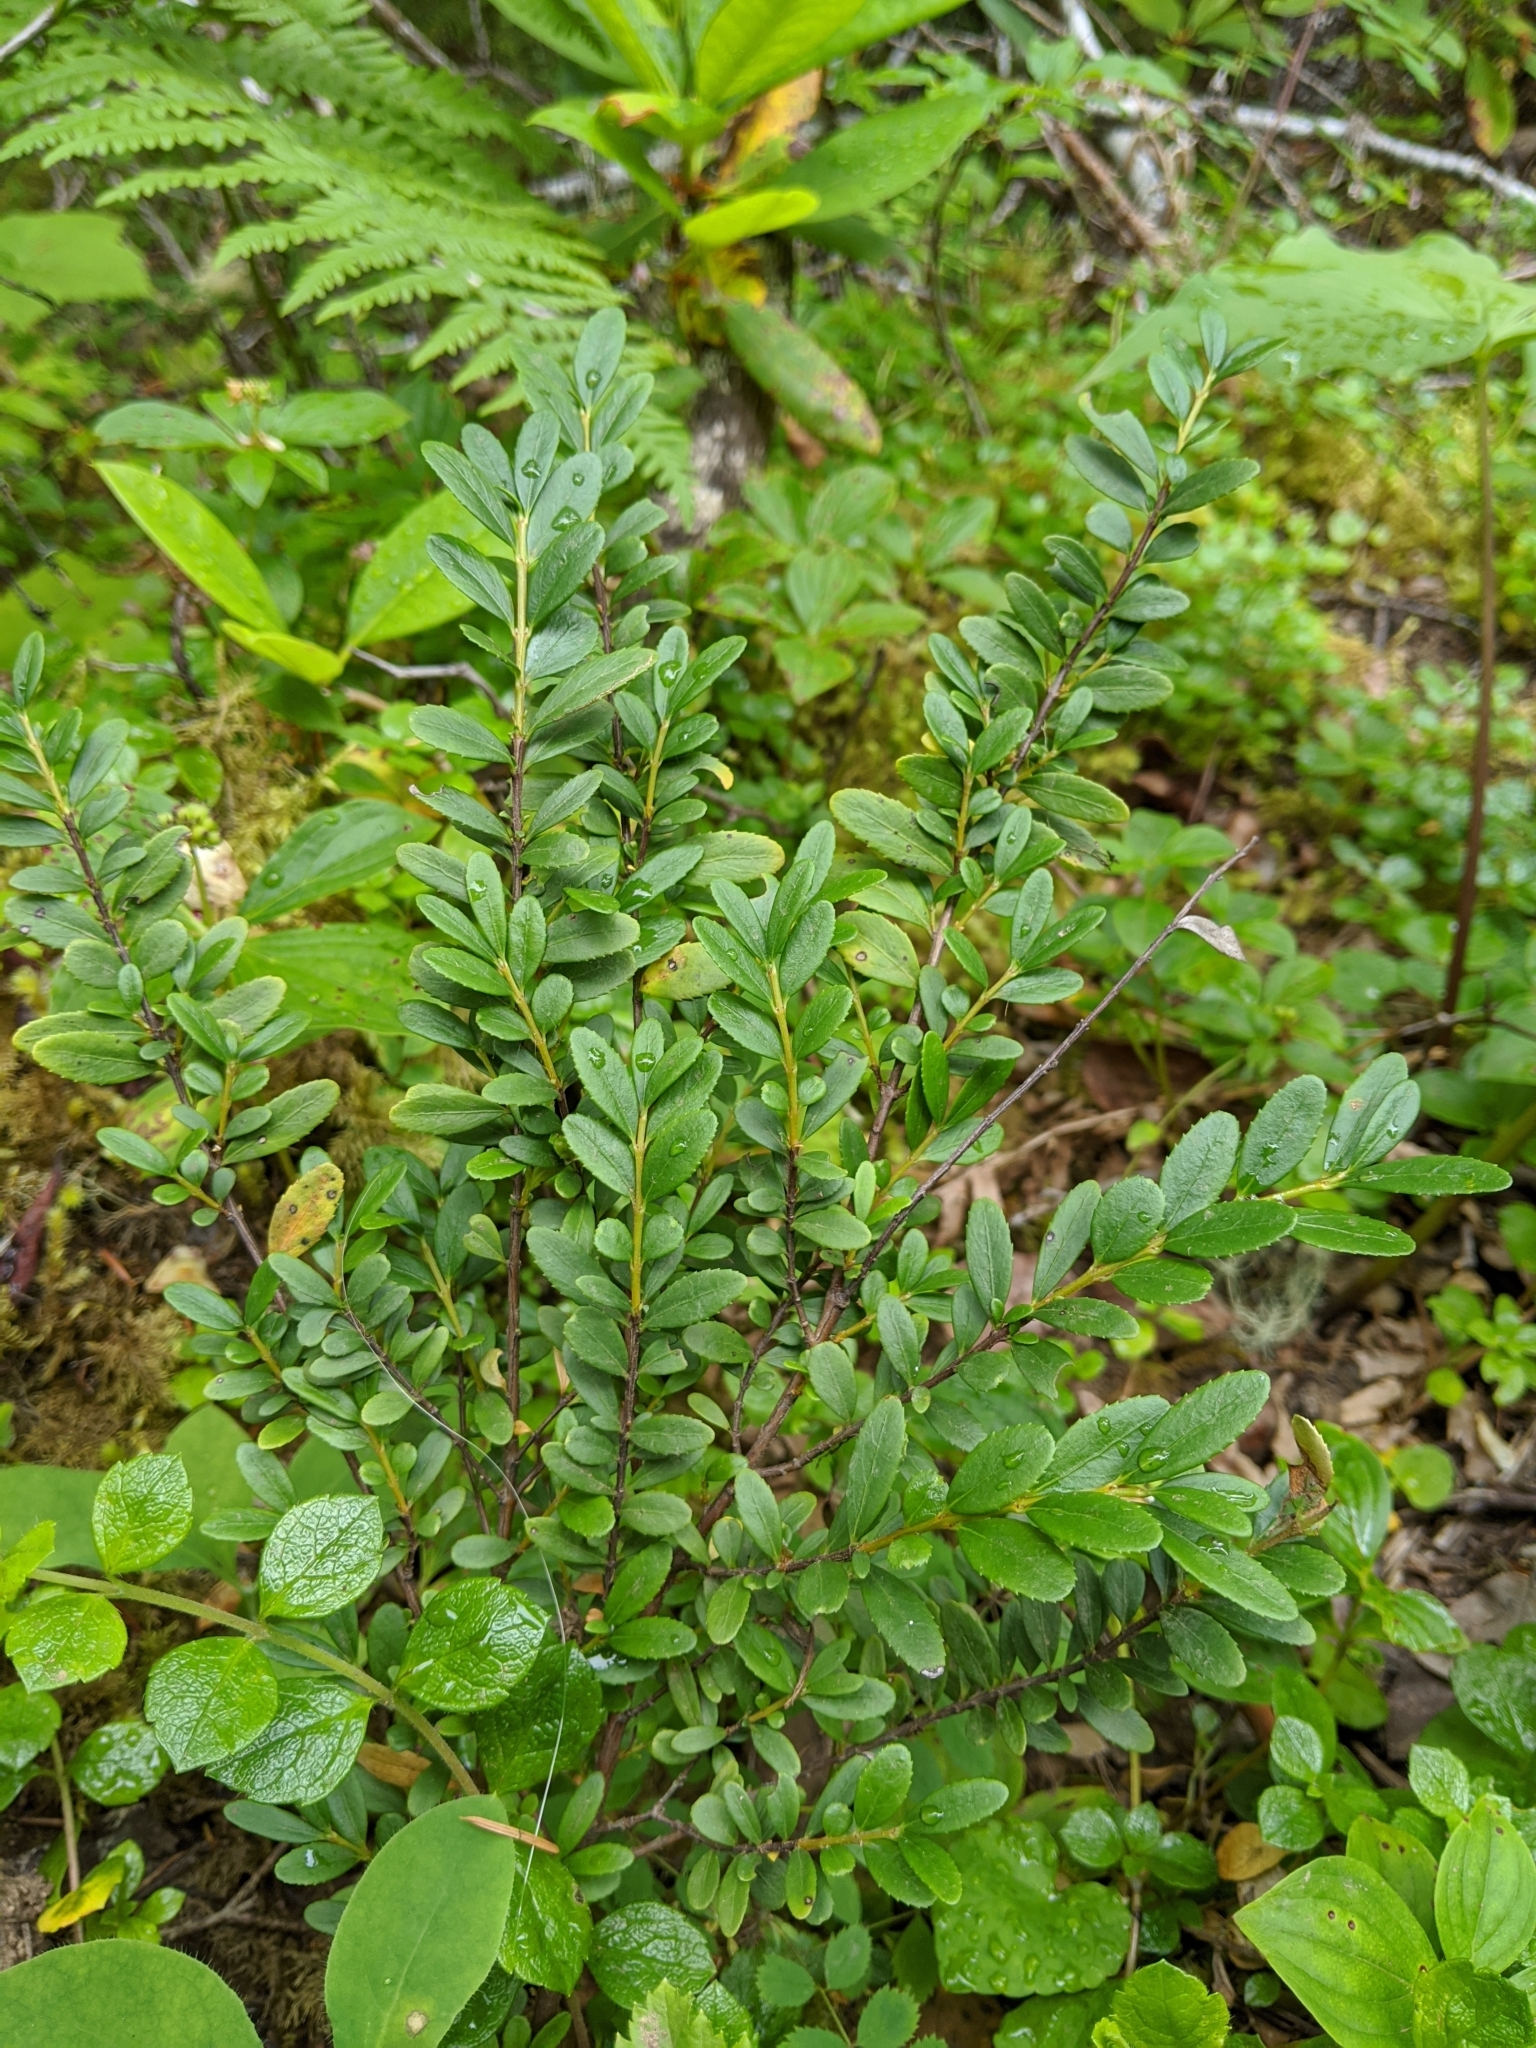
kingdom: Plantae
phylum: Tracheophyta
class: Magnoliopsida
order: Celastrales
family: Celastraceae
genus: Paxistima
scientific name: Paxistima myrsinites
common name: Mountain-lover
